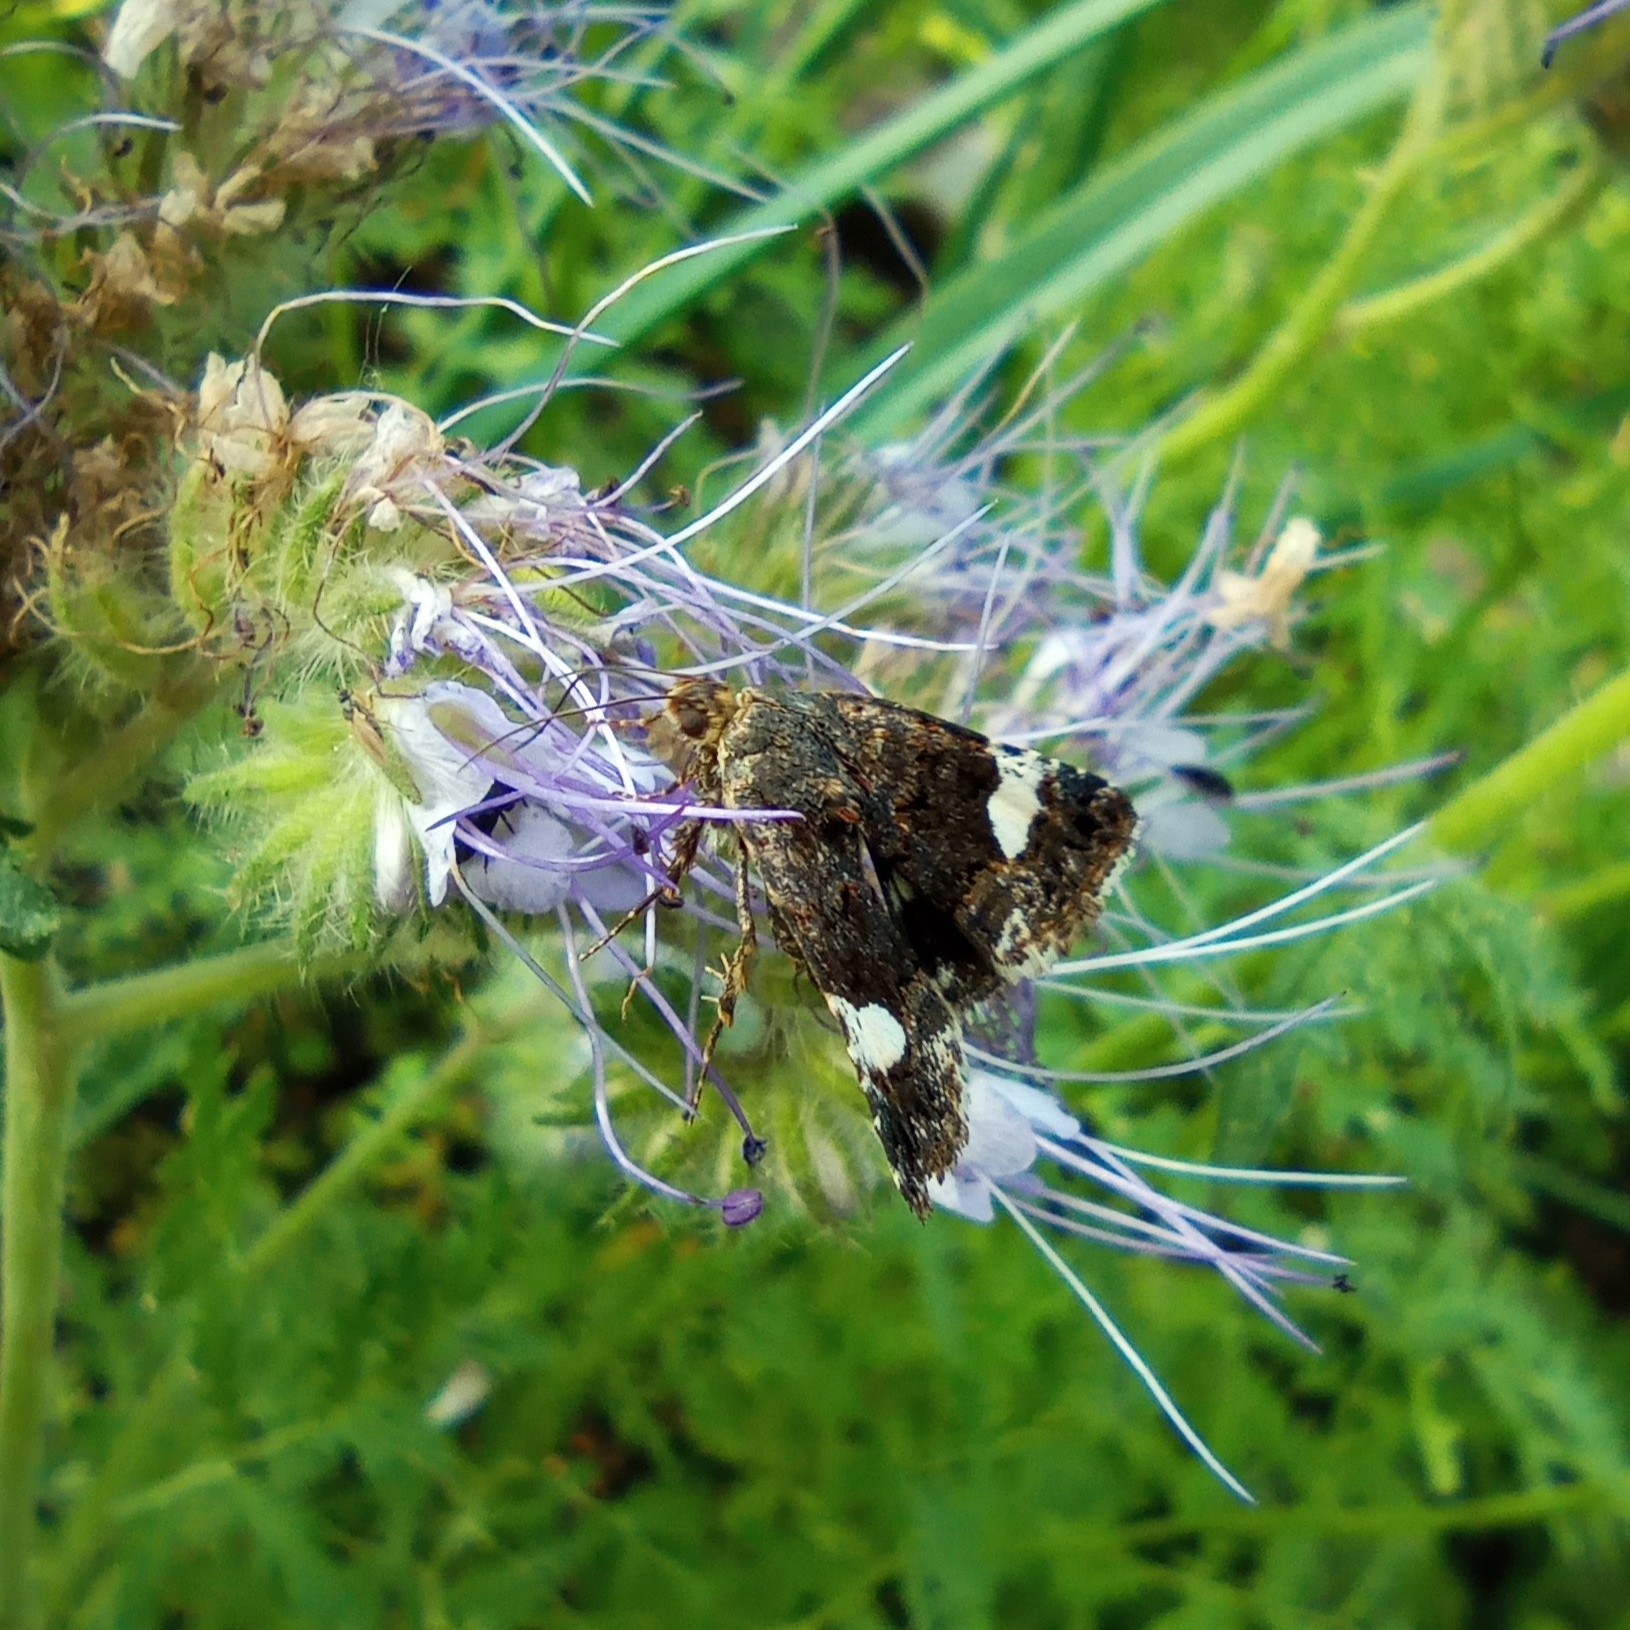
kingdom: Animalia
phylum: Arthropoda
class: Insecta
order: Lepidoptera
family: Erebidae
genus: Tyta
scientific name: Tyta luctuosa
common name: Four-spotted
